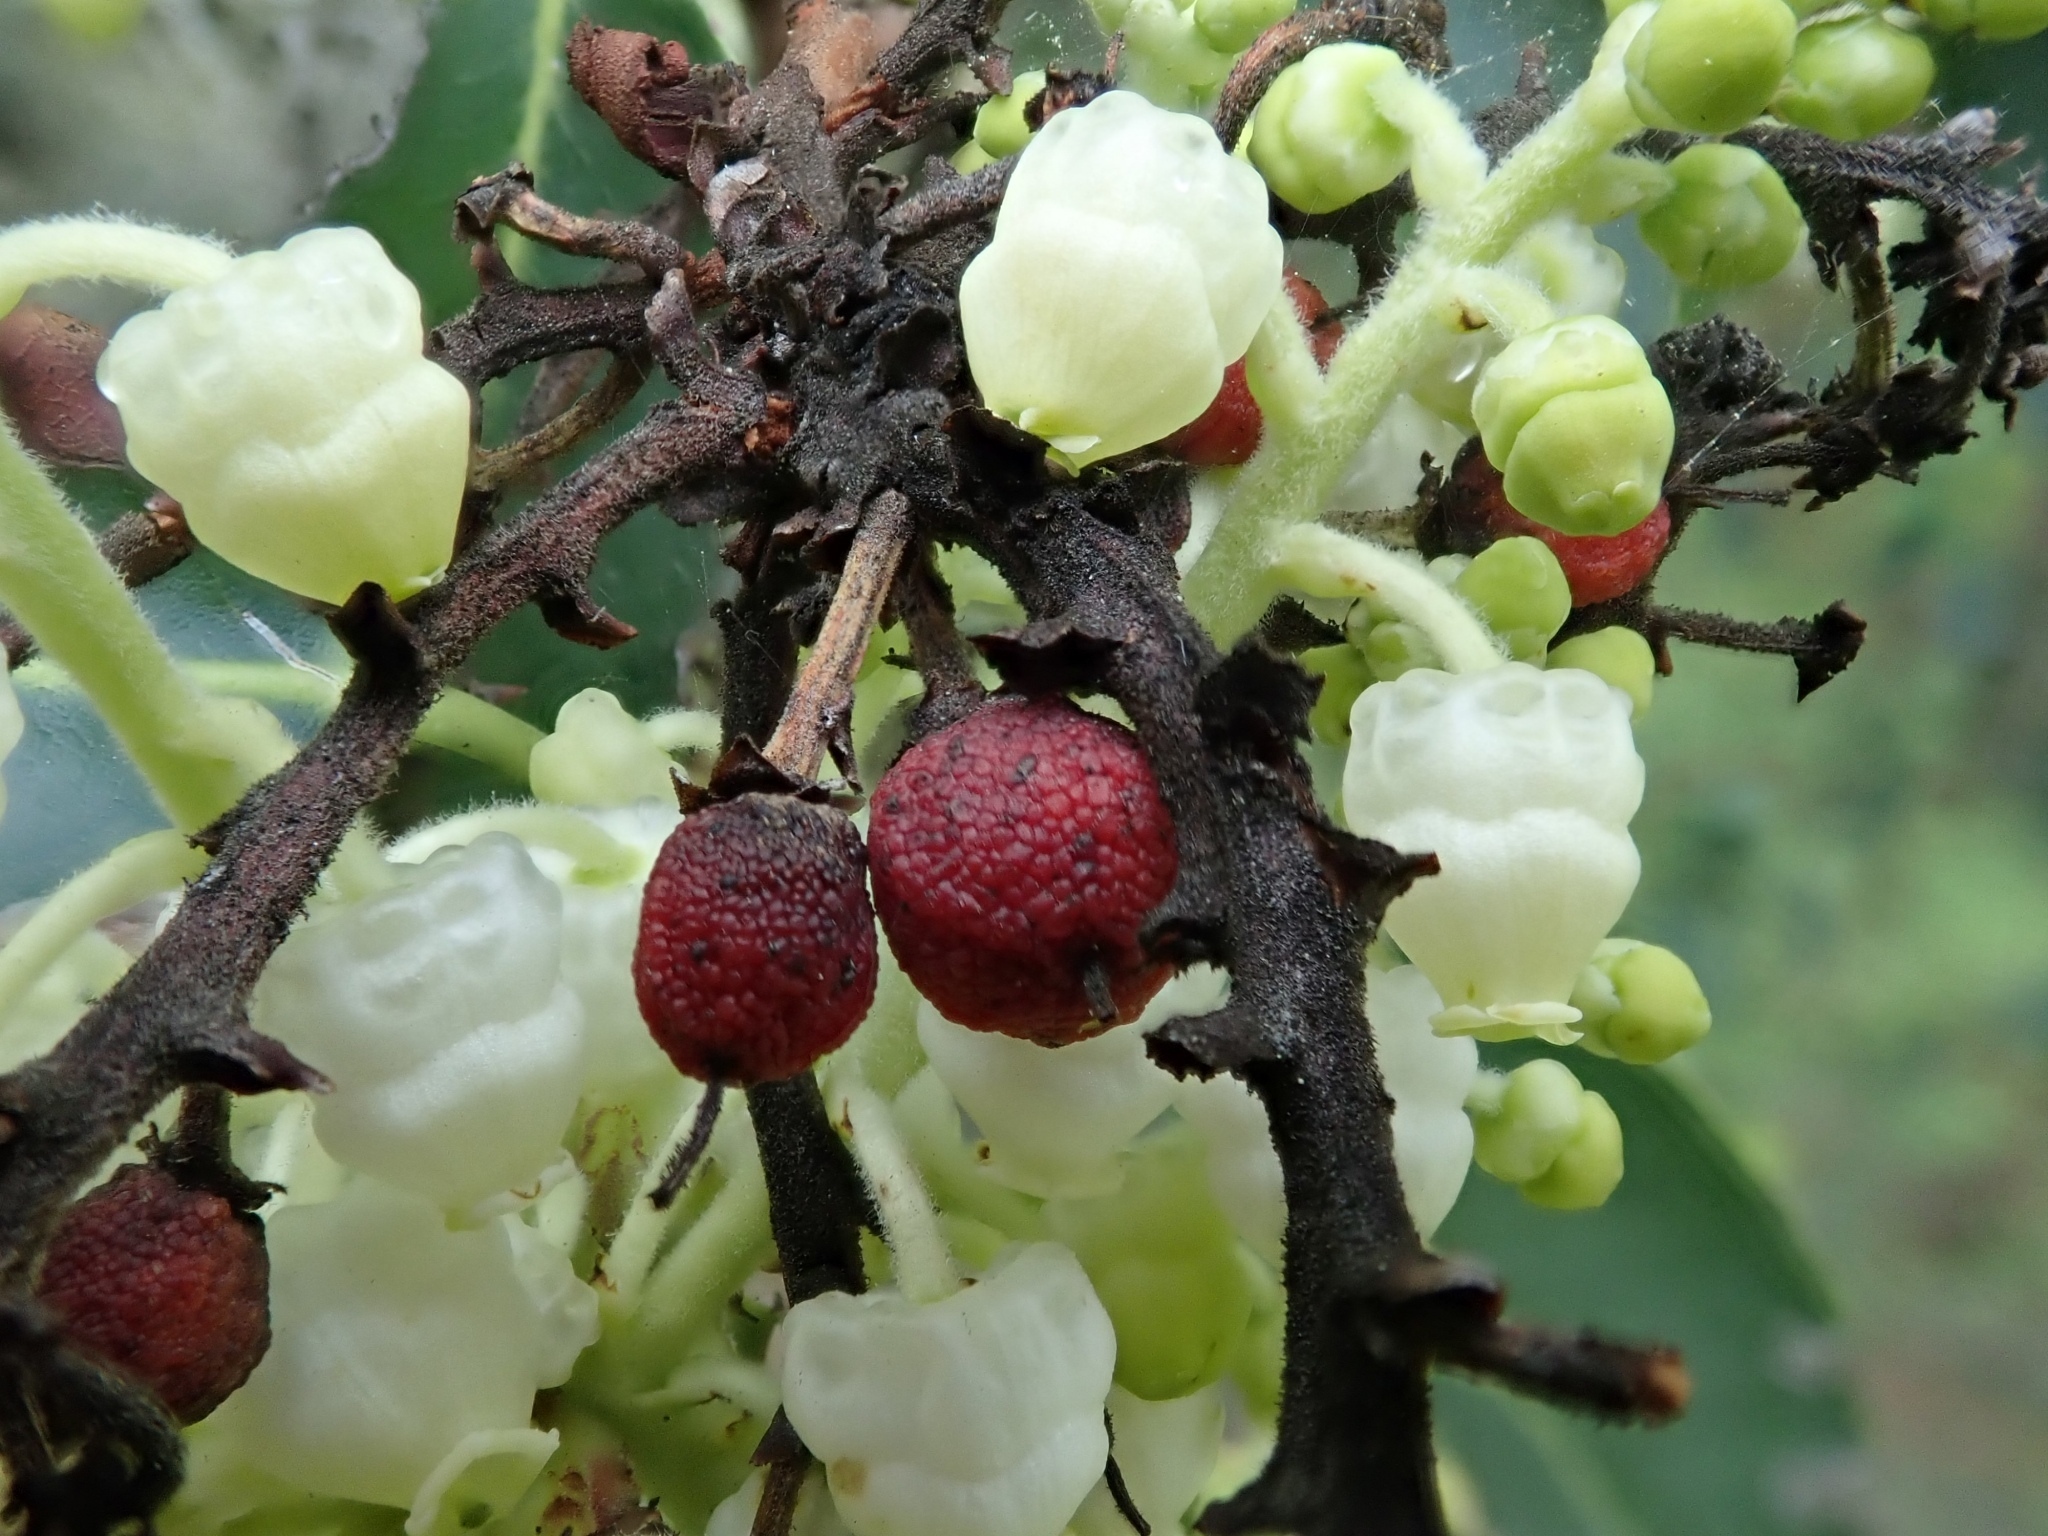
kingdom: Plantae
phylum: Tracheophyta
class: Magnoliopsida
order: Ericales
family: Ericaceae
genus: Arbutus
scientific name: Arbutus menziesii
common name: Pacific madrone
